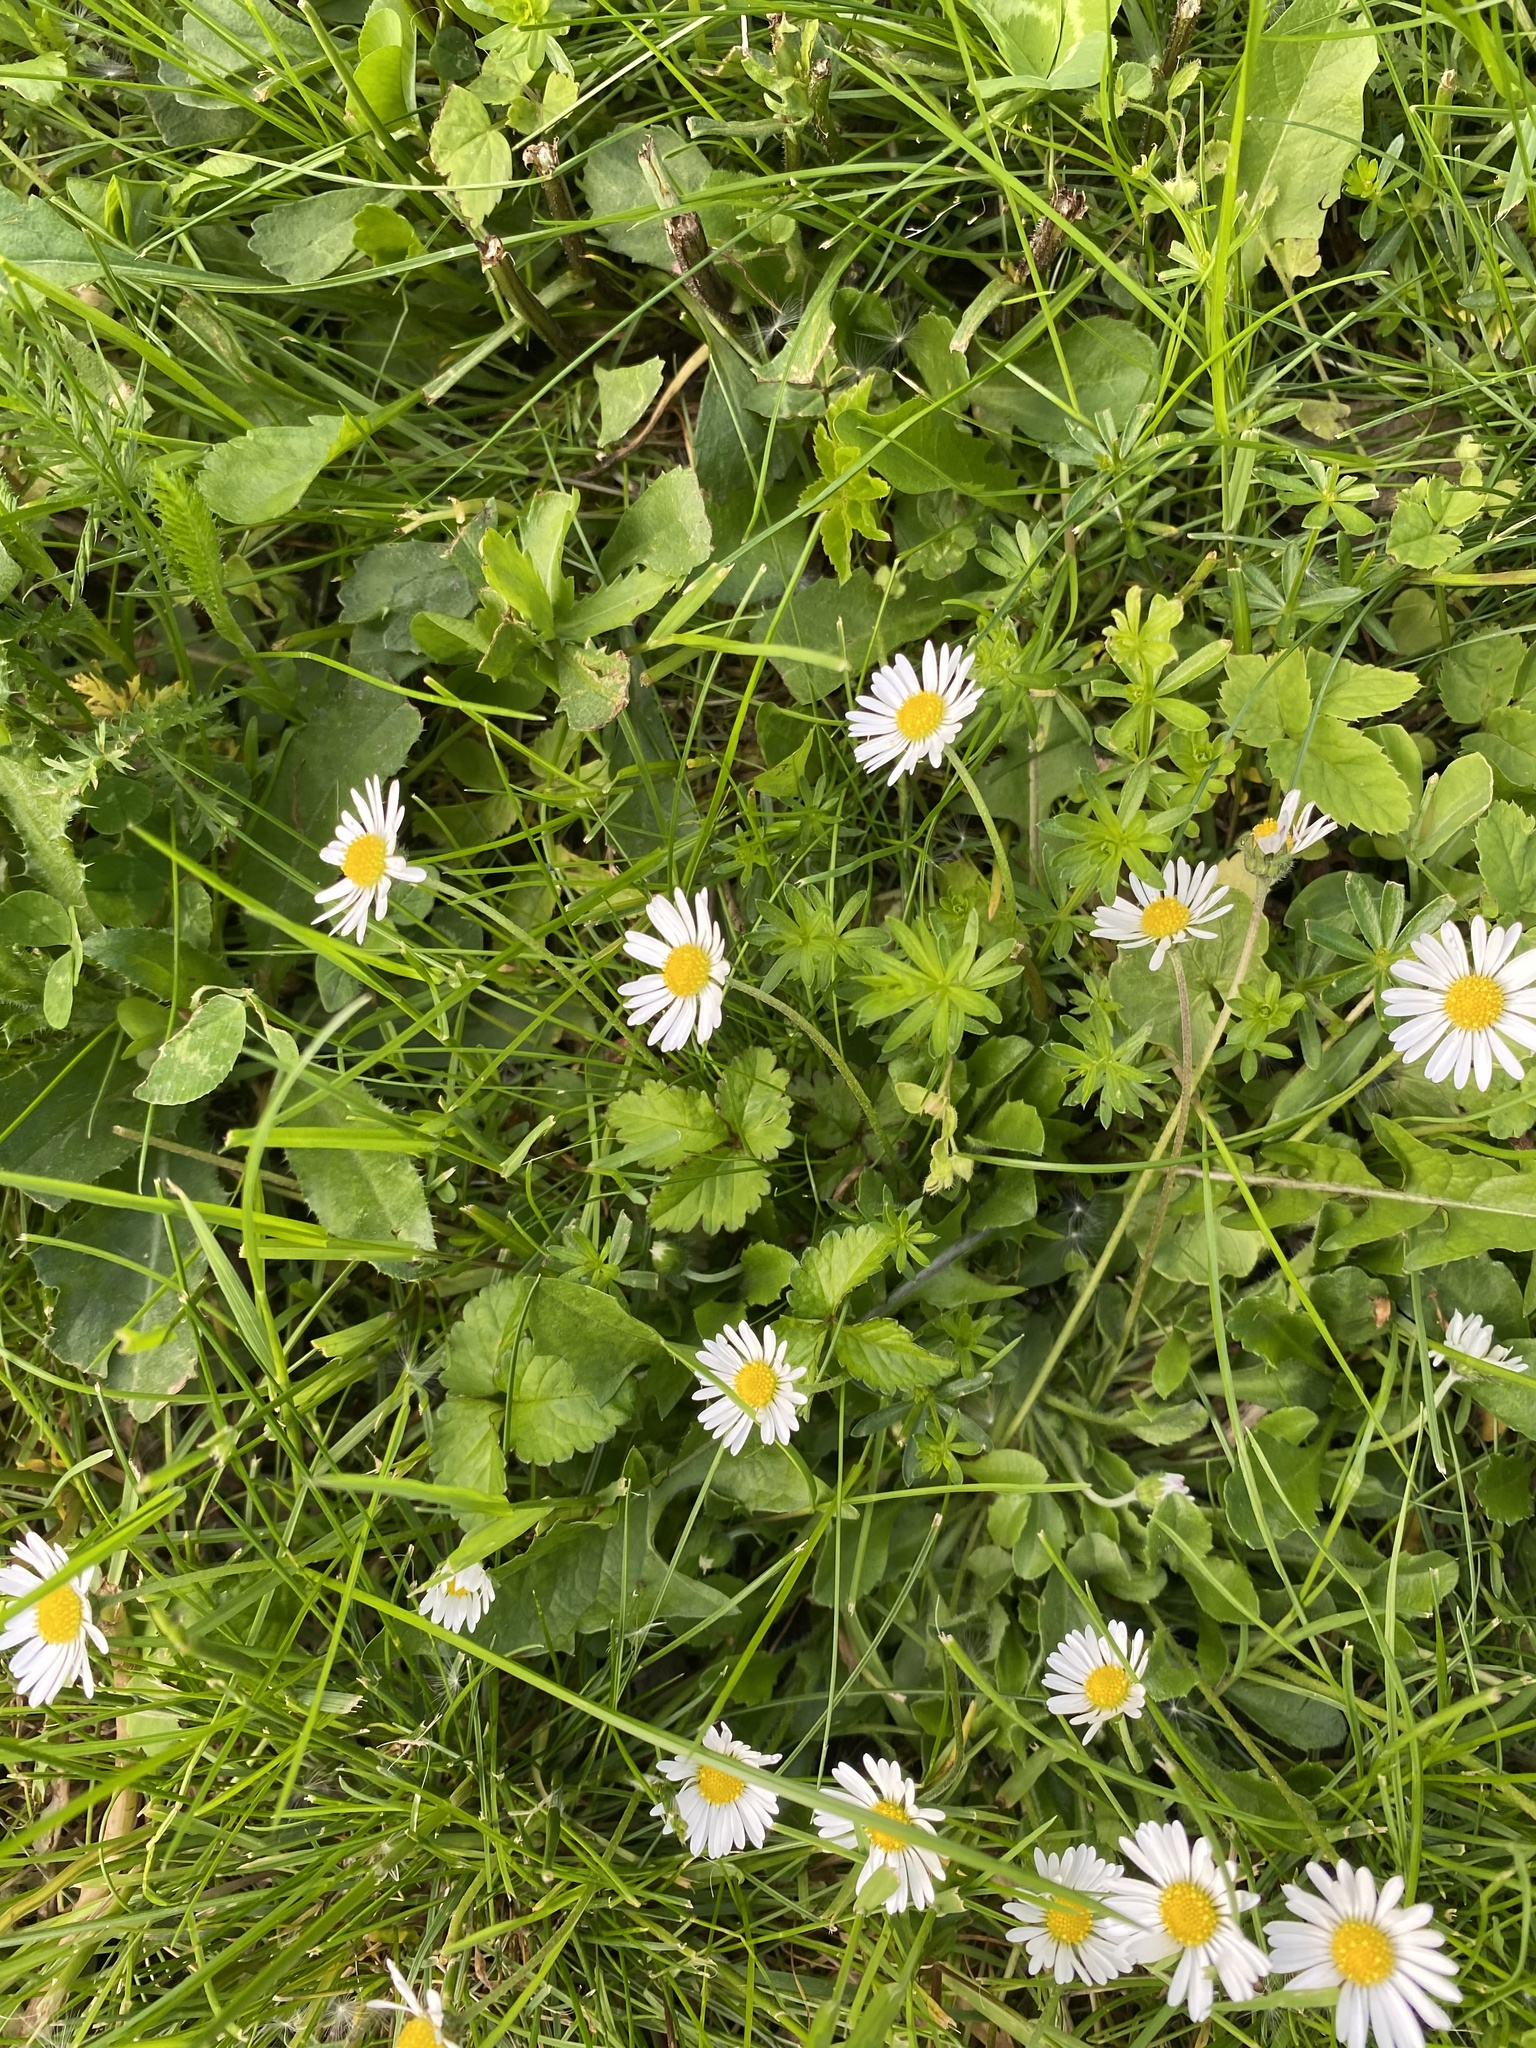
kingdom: Plantae
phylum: Tracheophyta
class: Magnoliopsida
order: Asterales
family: Asteraceae
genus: Bellis
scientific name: Bellis perennis
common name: Lawndaisy
